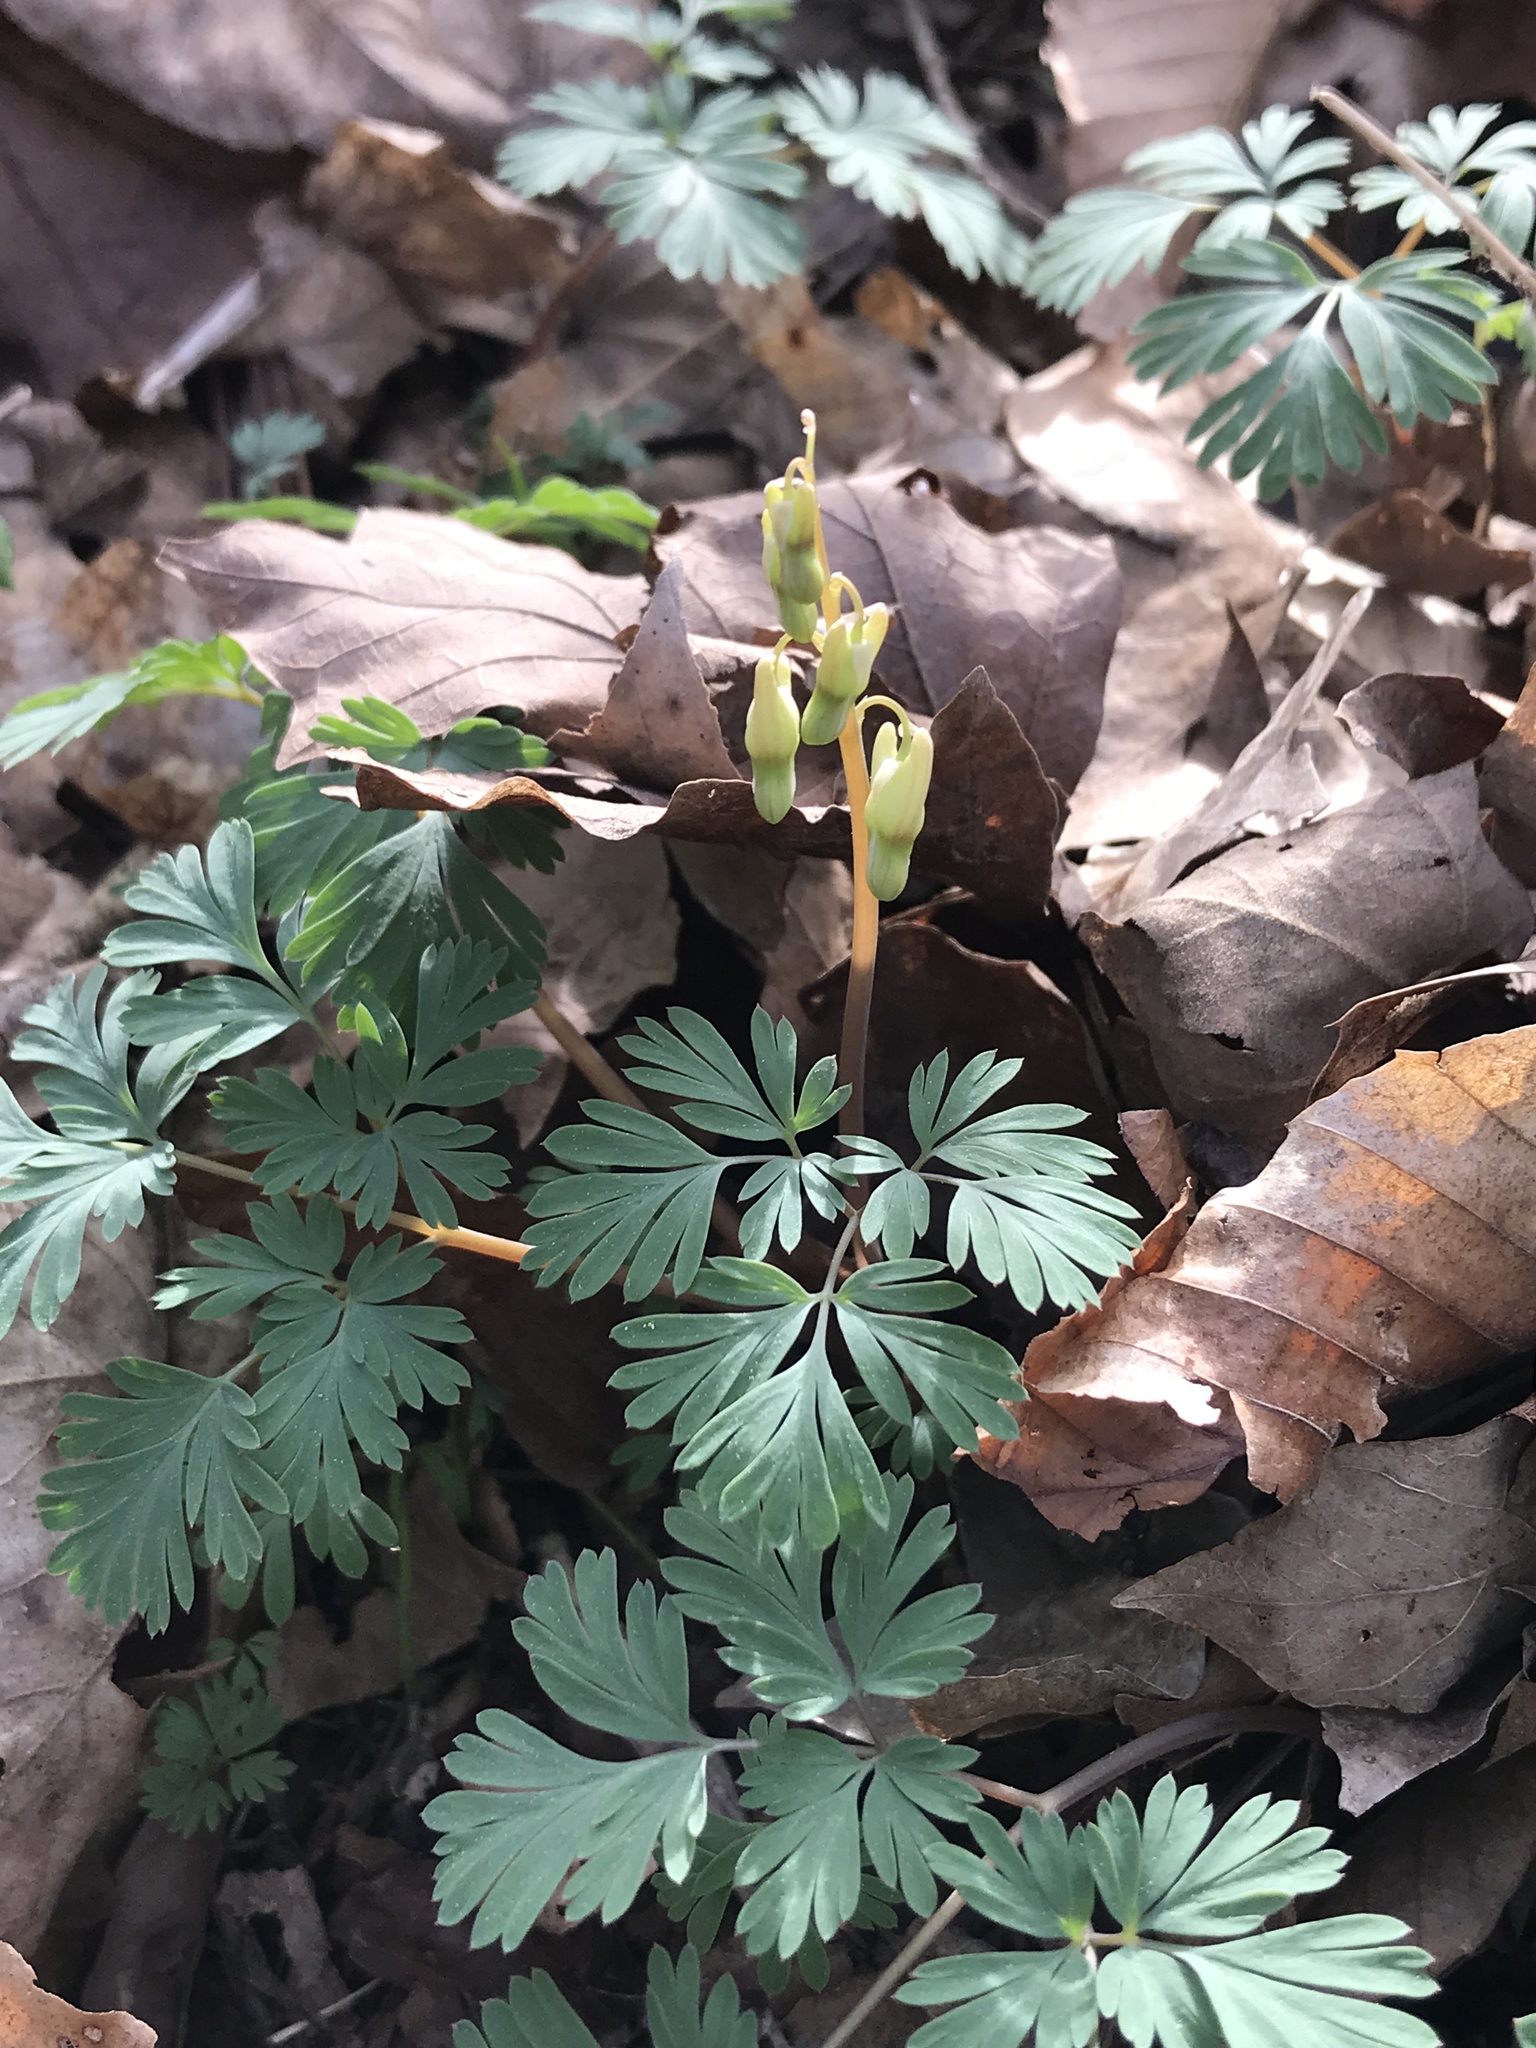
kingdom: Plantae
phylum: Tracheophyta
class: Magnoliopsida
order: Ranunculales
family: Papaveraceae
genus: Dicentra
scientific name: Dicentra cucullaria
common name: Dutchman's breeches
